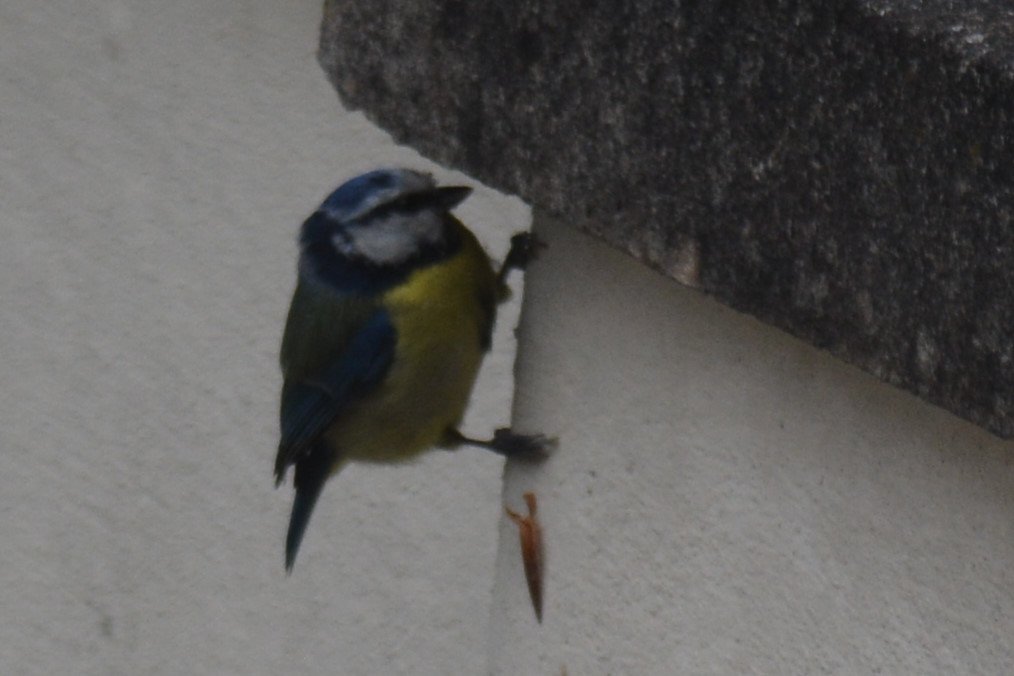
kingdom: Animalia
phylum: Chordata
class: Aves
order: Passeriformes
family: Paridae
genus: Cyanistes
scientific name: Cyanistes caeruleus
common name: Eurasian blue tit
